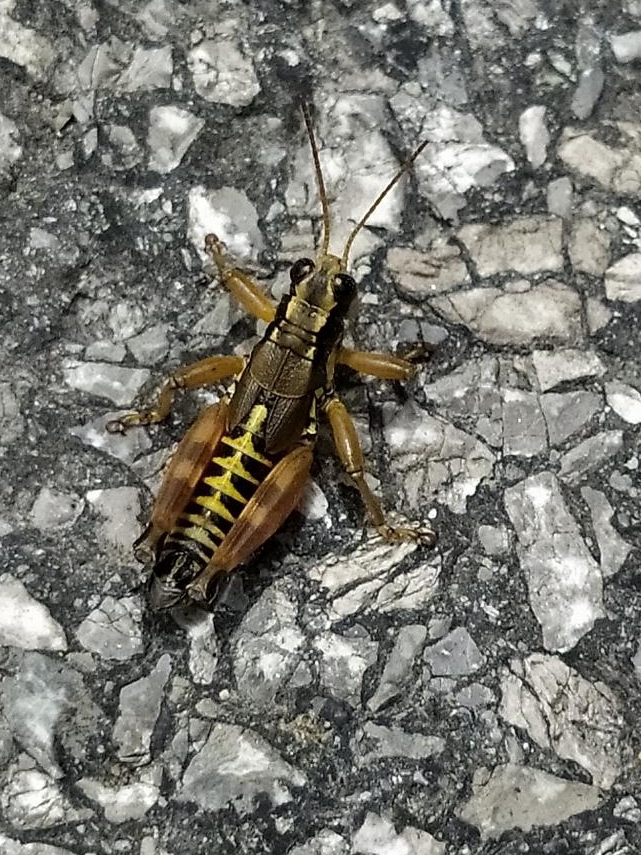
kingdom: Animalia
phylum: Arthropoda
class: Insecta
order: Orthoptera
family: Acrididae
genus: Podisma
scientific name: Podisma pedestris
